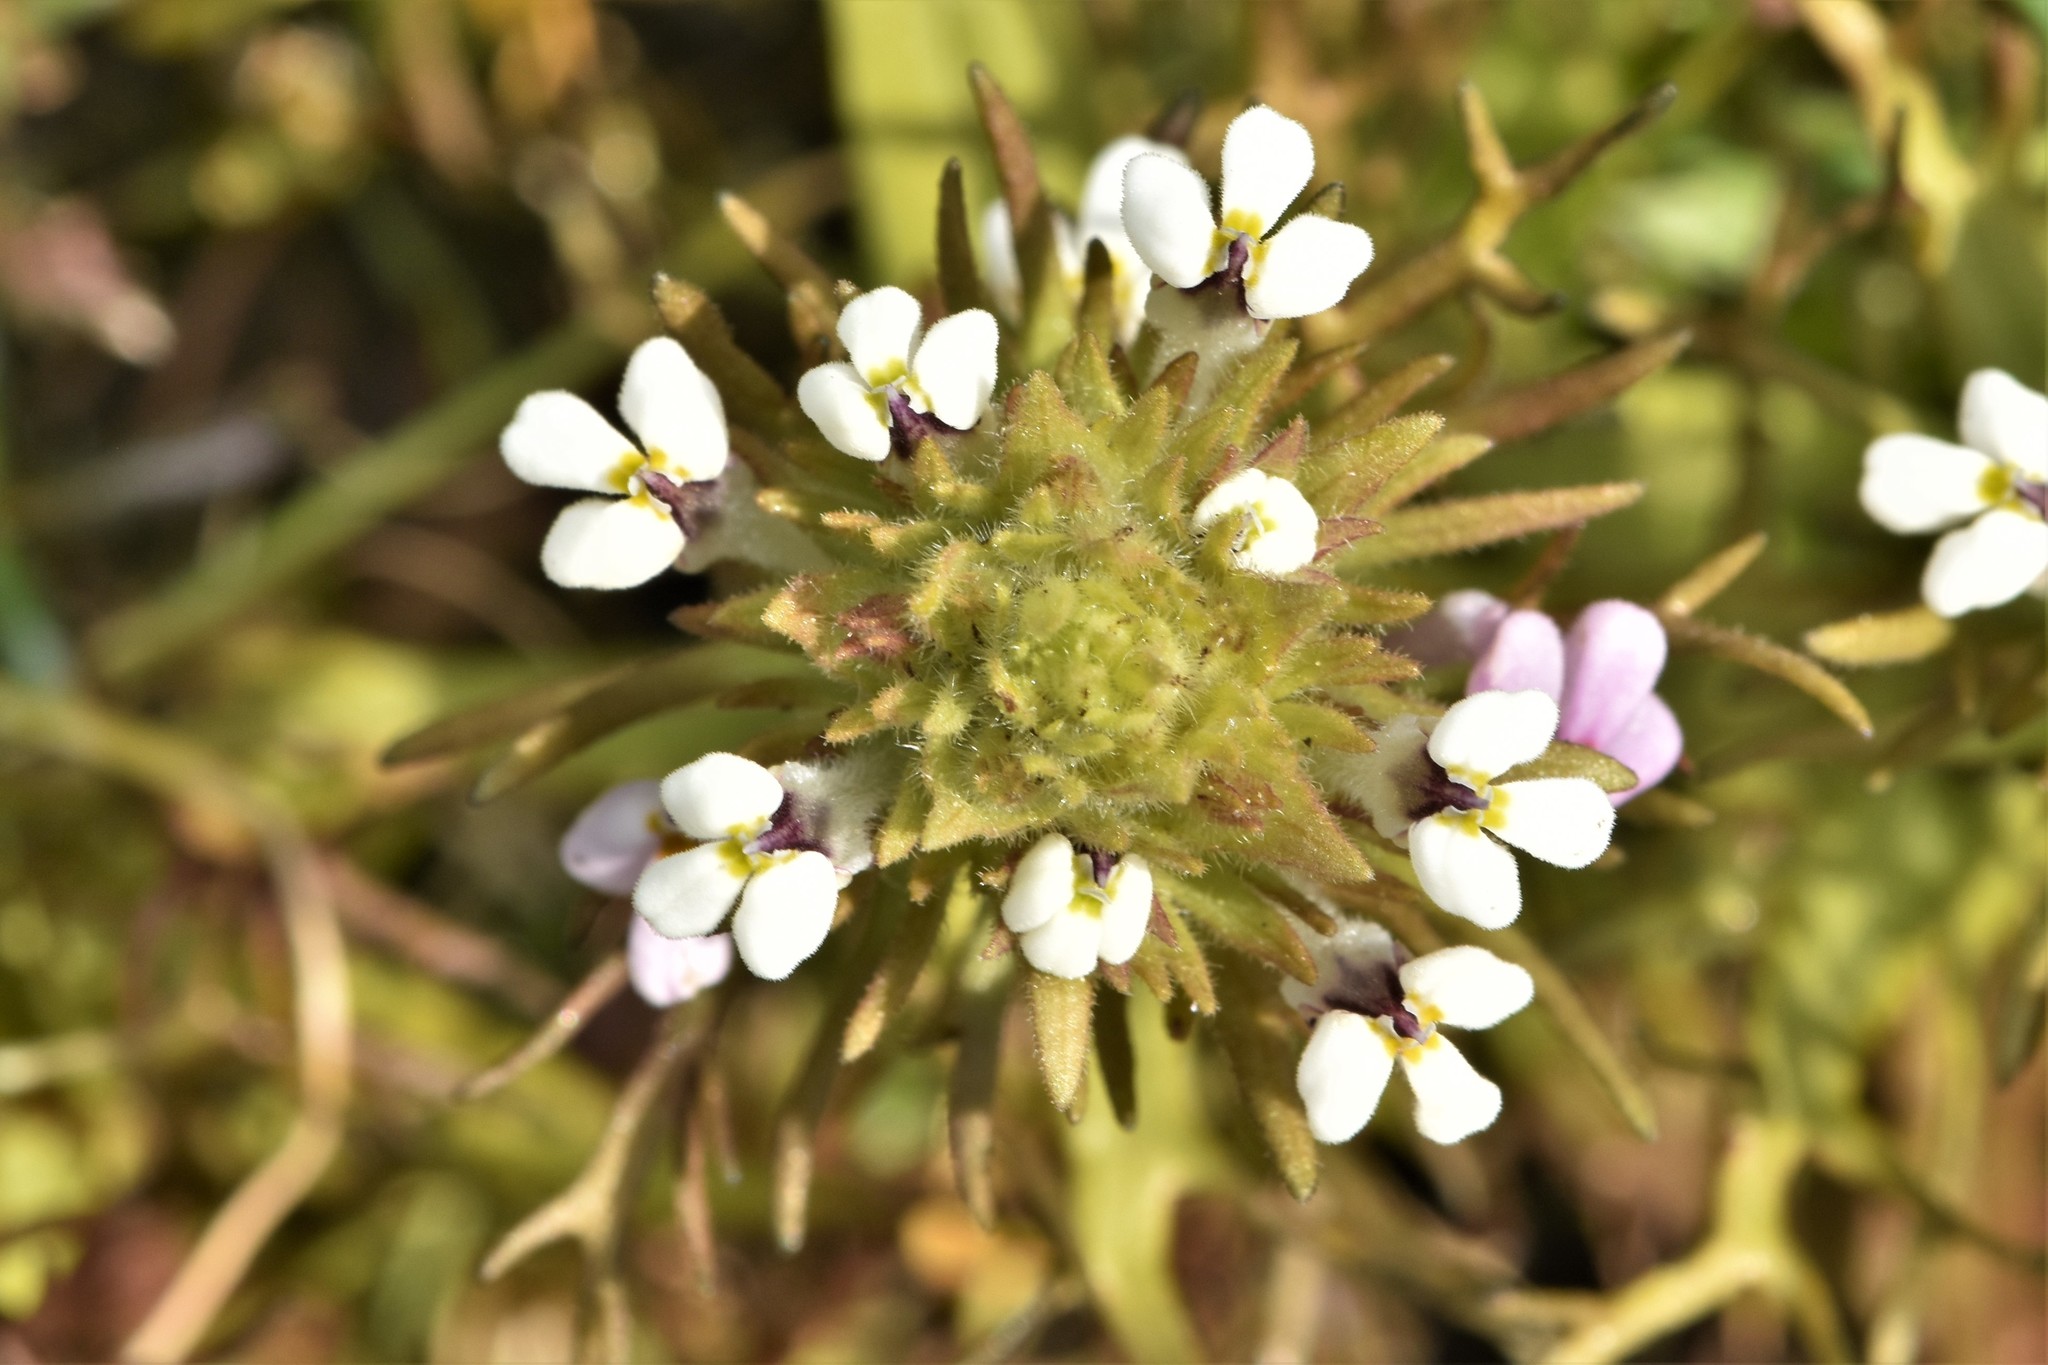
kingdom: Plantae
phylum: Tracheophyta
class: Magnoliopsida
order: Lamiales
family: Orobanchaceae
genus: Triphysaria
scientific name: Triphysaria versicolor
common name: Bearded false owl-clover
